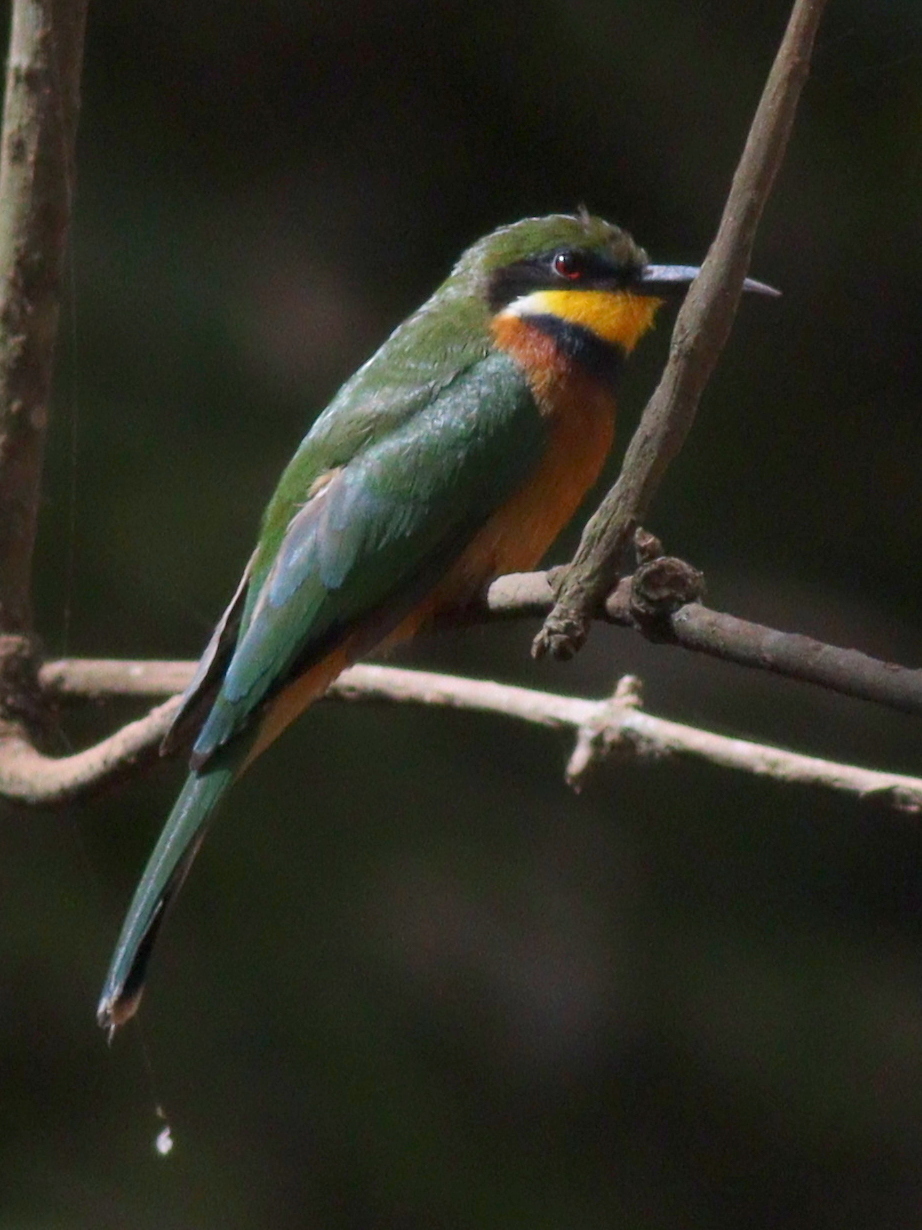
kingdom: Animalia
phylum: Chordata
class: Aves
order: Coraciiformes
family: Meropidae
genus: Merops
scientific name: Merops oreobates
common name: Cinnamon-chested bee-eater
